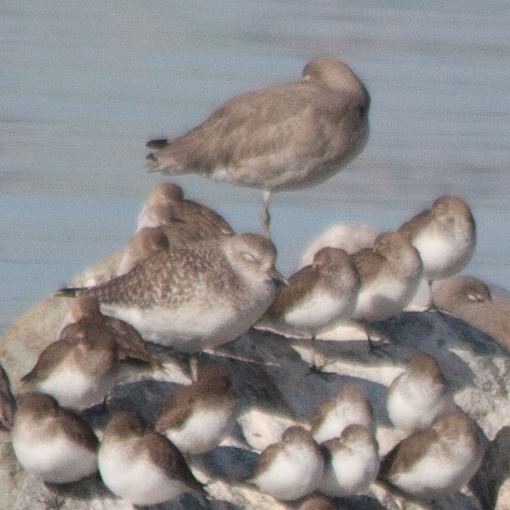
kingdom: Animalia
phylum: Chordata
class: Aves
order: Charadriiformes
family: Charadriidae
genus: Pluvialis
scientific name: Pluvialis squatarola
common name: Grey plover
